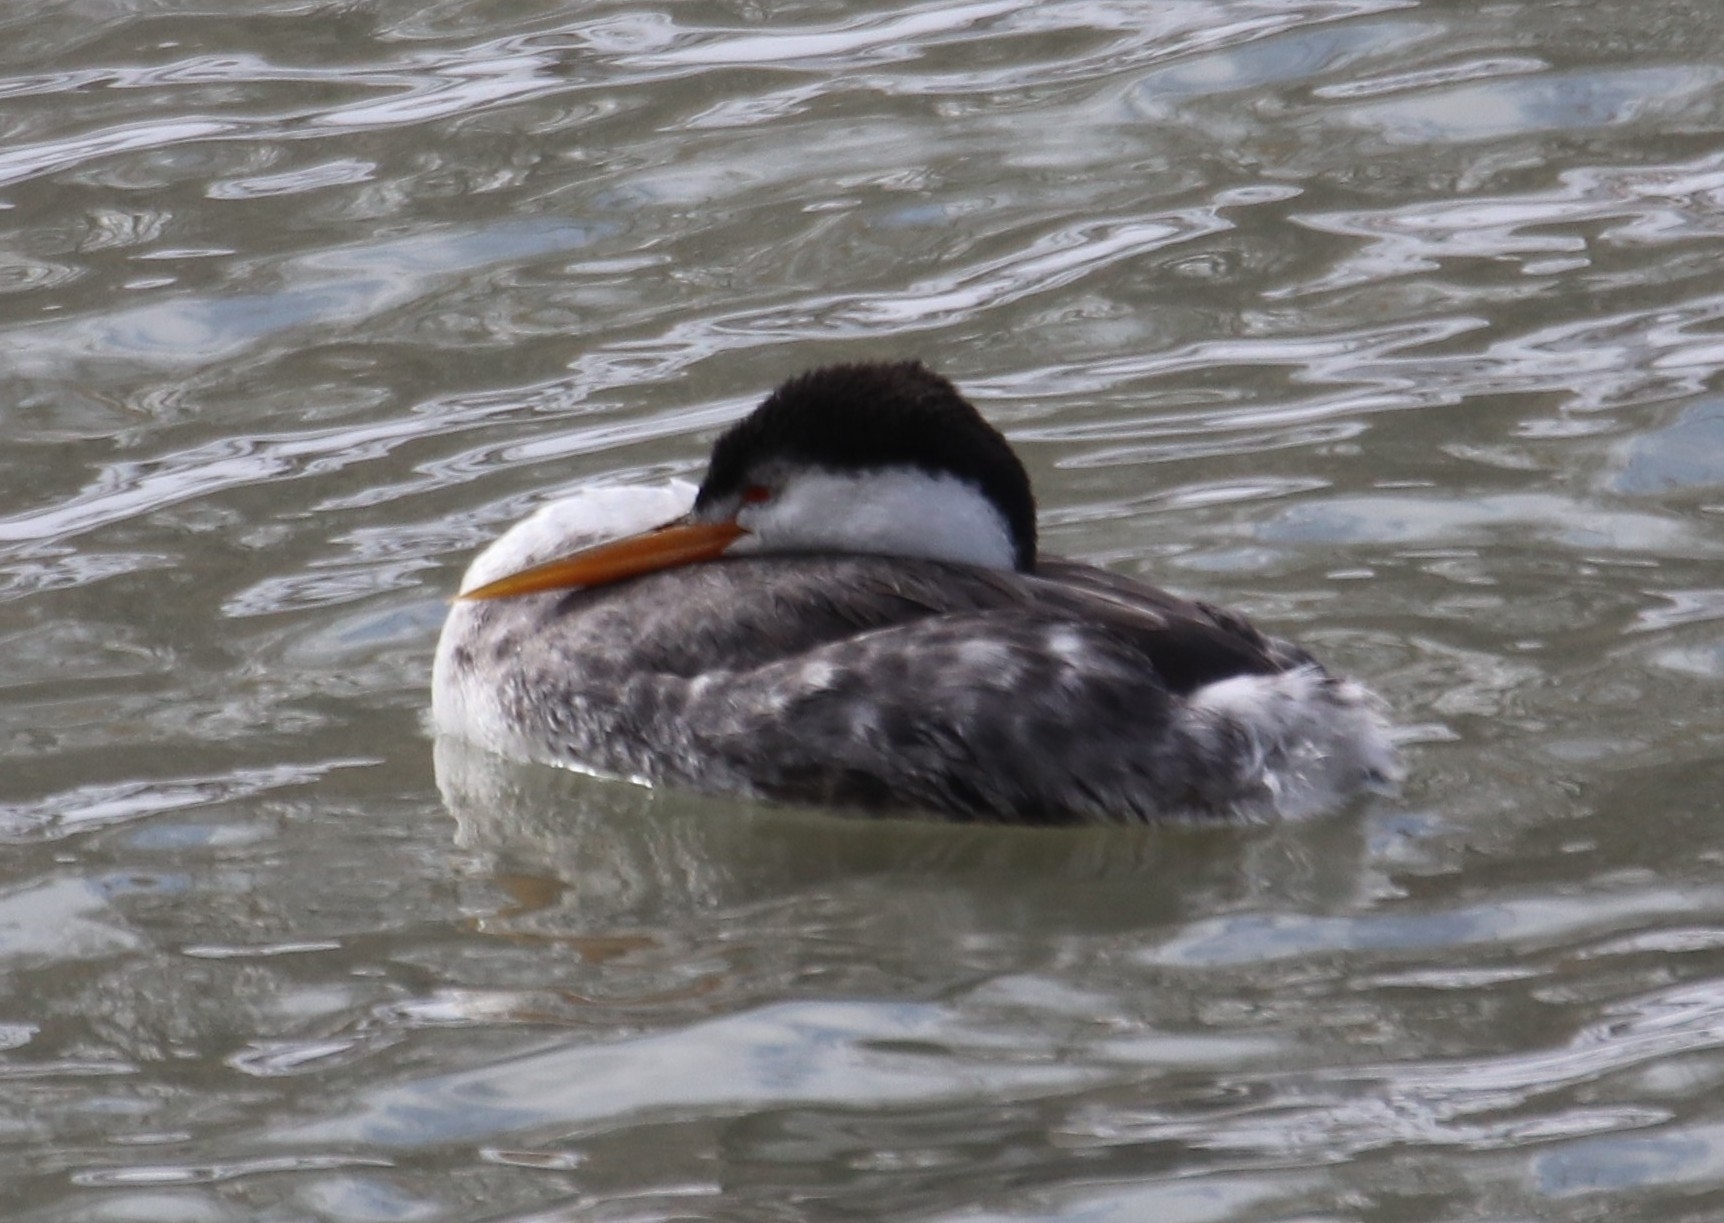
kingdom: Animalia
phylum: Chordata
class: Aves
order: Podicipediformes
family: Podicipedidae
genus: Aechmophorus
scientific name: Aechmophorus clarkii
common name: Clark's grebe
